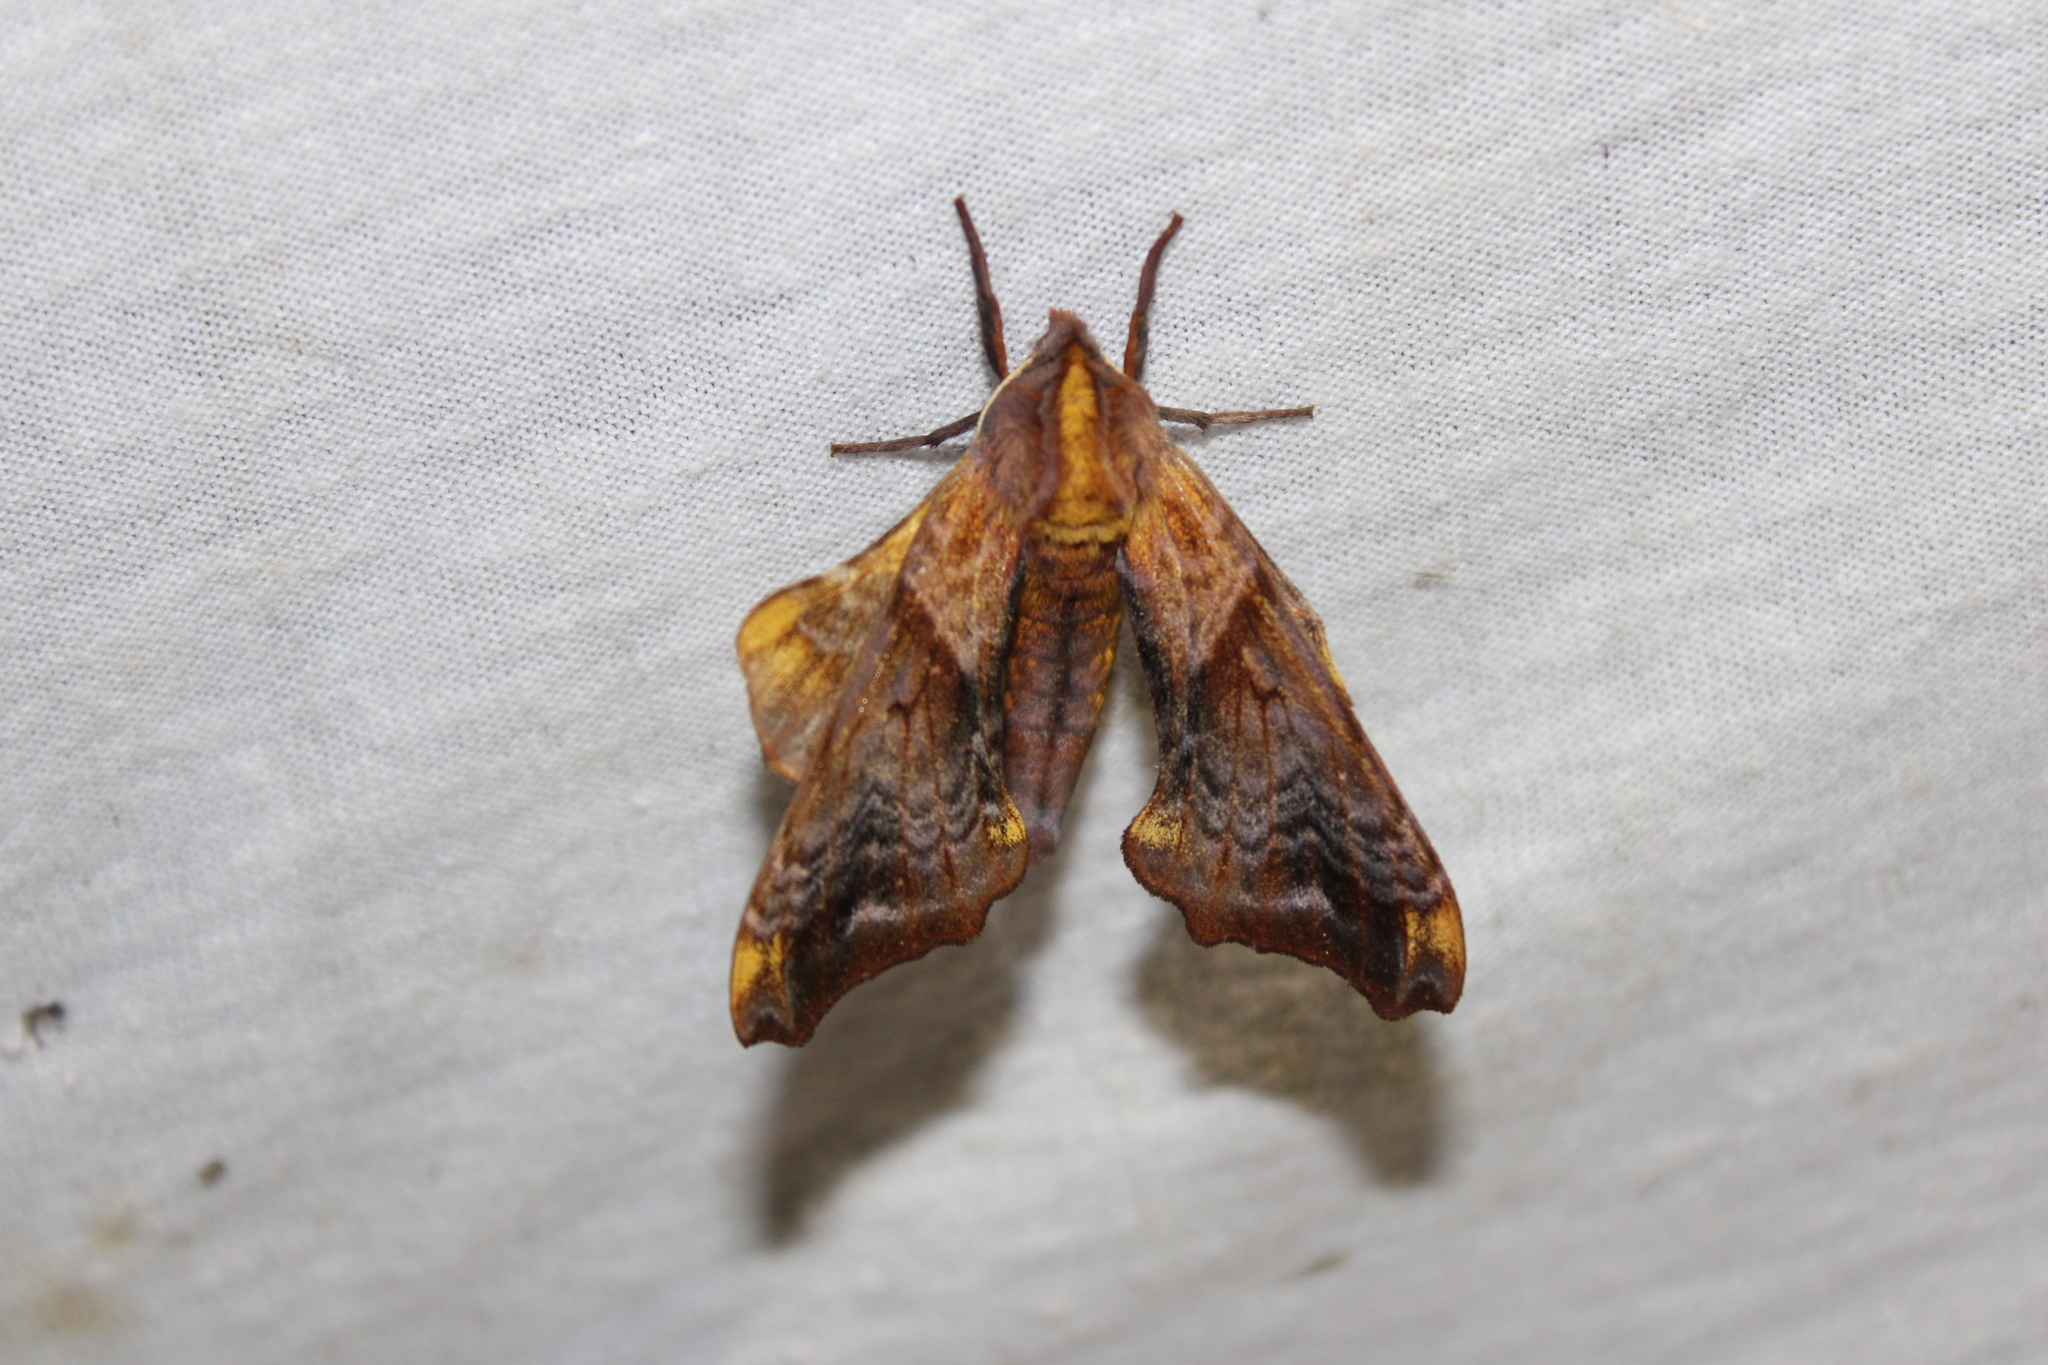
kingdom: Animalia
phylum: Arthropoda
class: Insecta
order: Lepidoptera
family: Sphingidae
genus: Paonias
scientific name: Paonias myops
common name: Small-eyed sphinx
